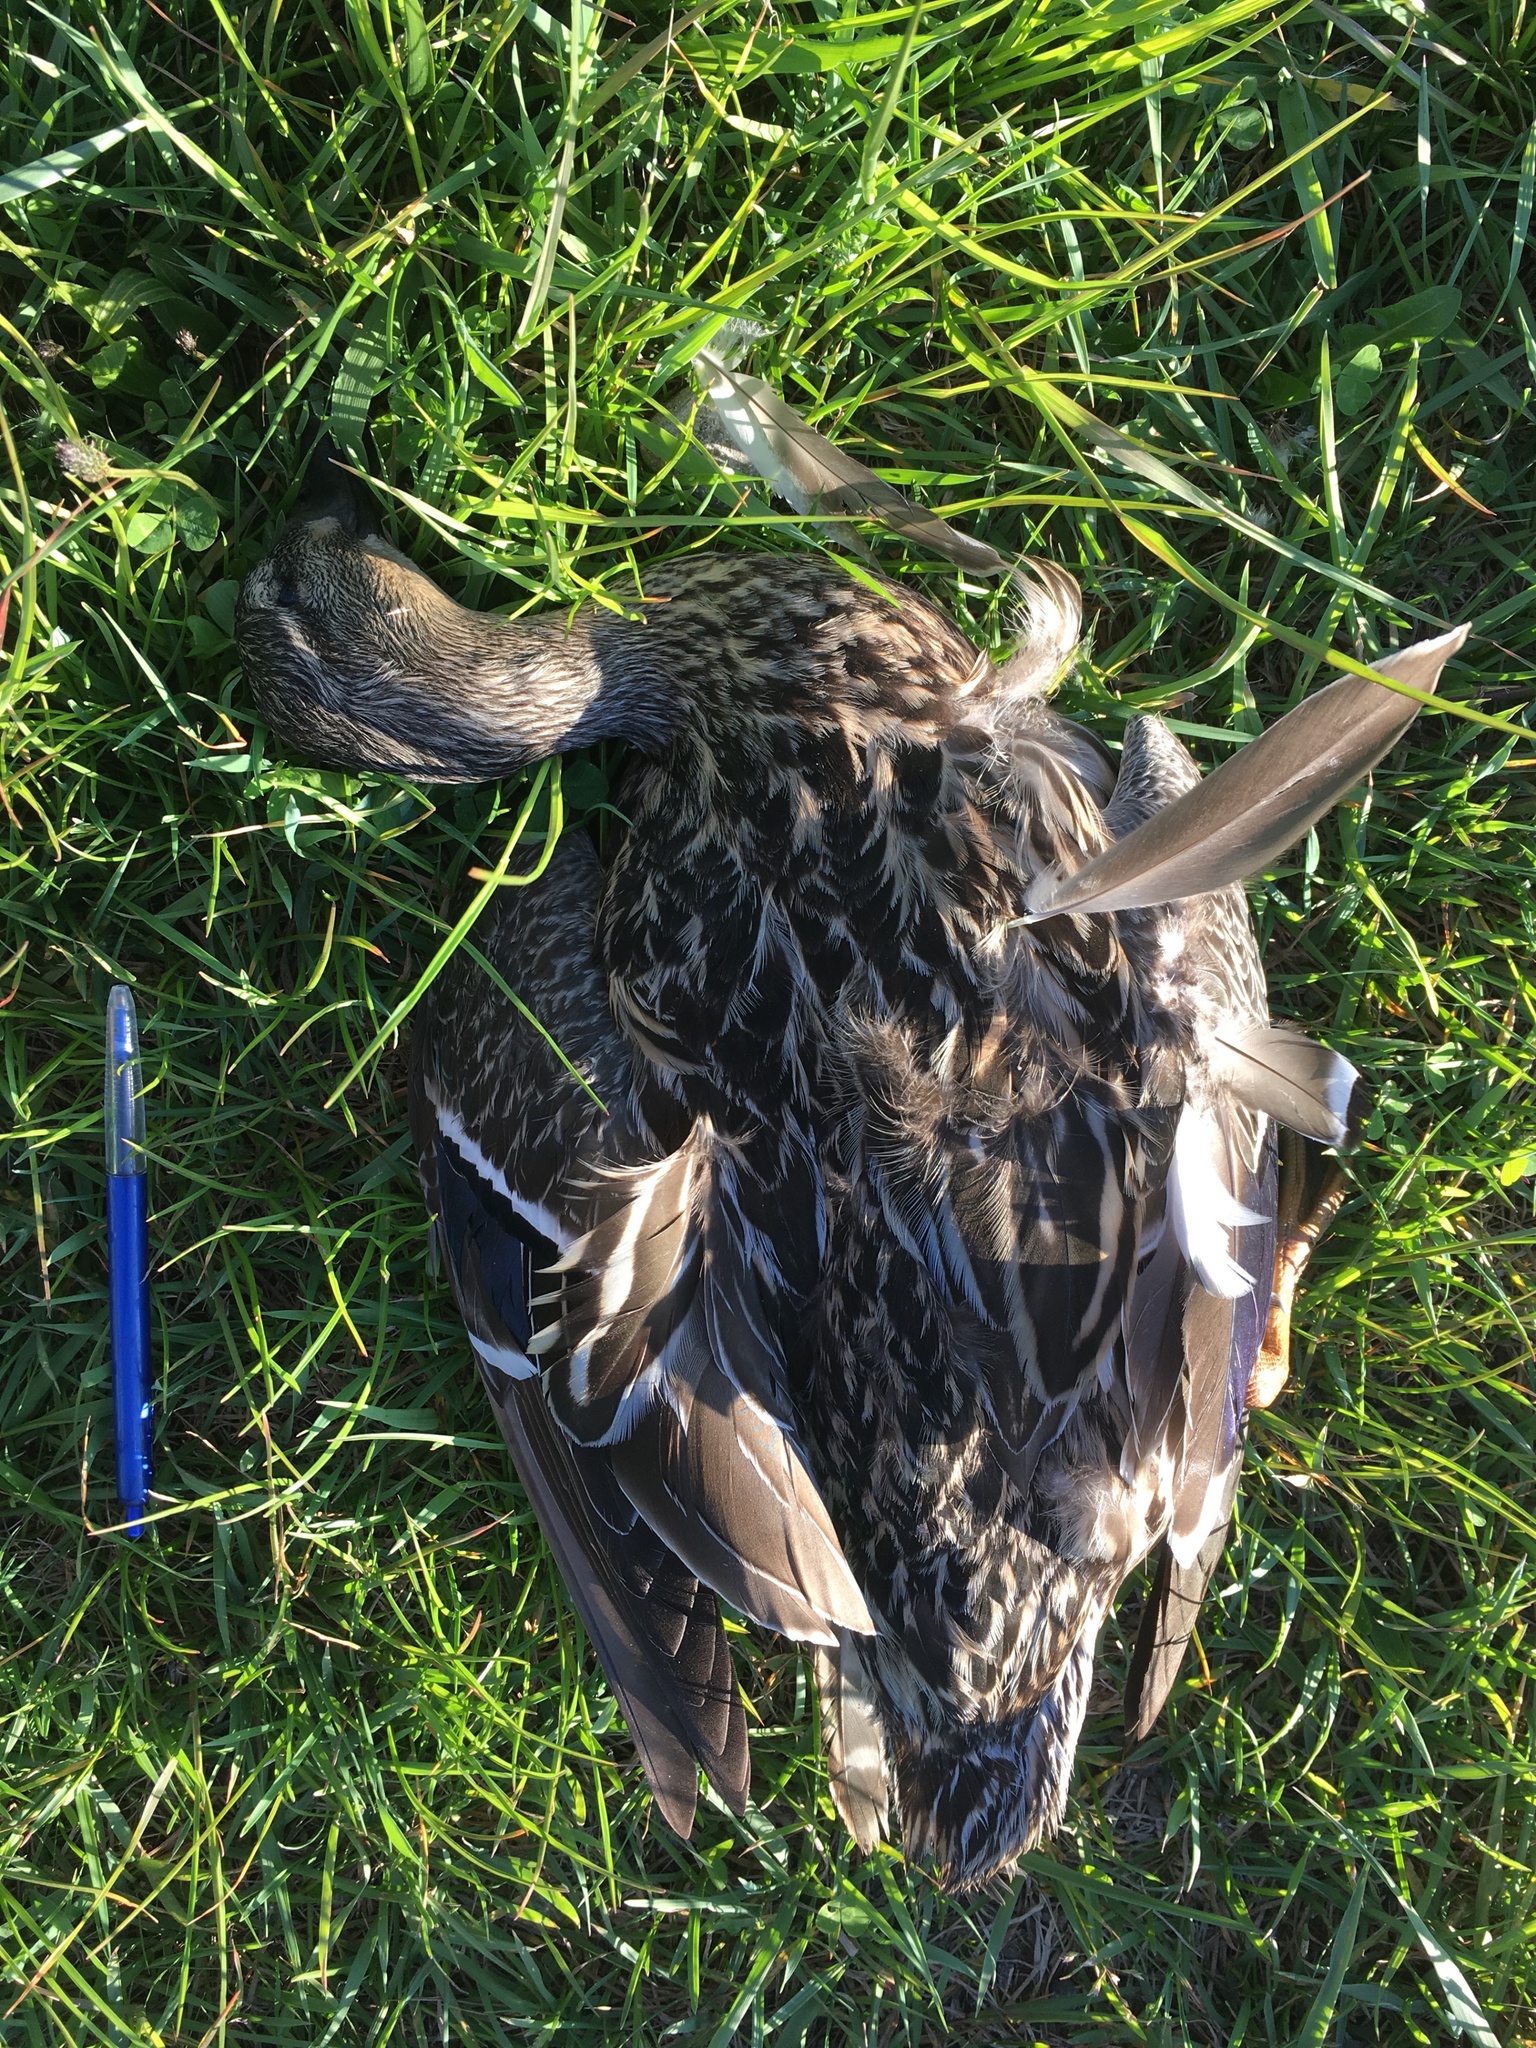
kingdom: Animalia
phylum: Chordata
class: Aves
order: Anseriformes
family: Anatidae
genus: Anas
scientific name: Anas platyrhynchos
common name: Mallard
